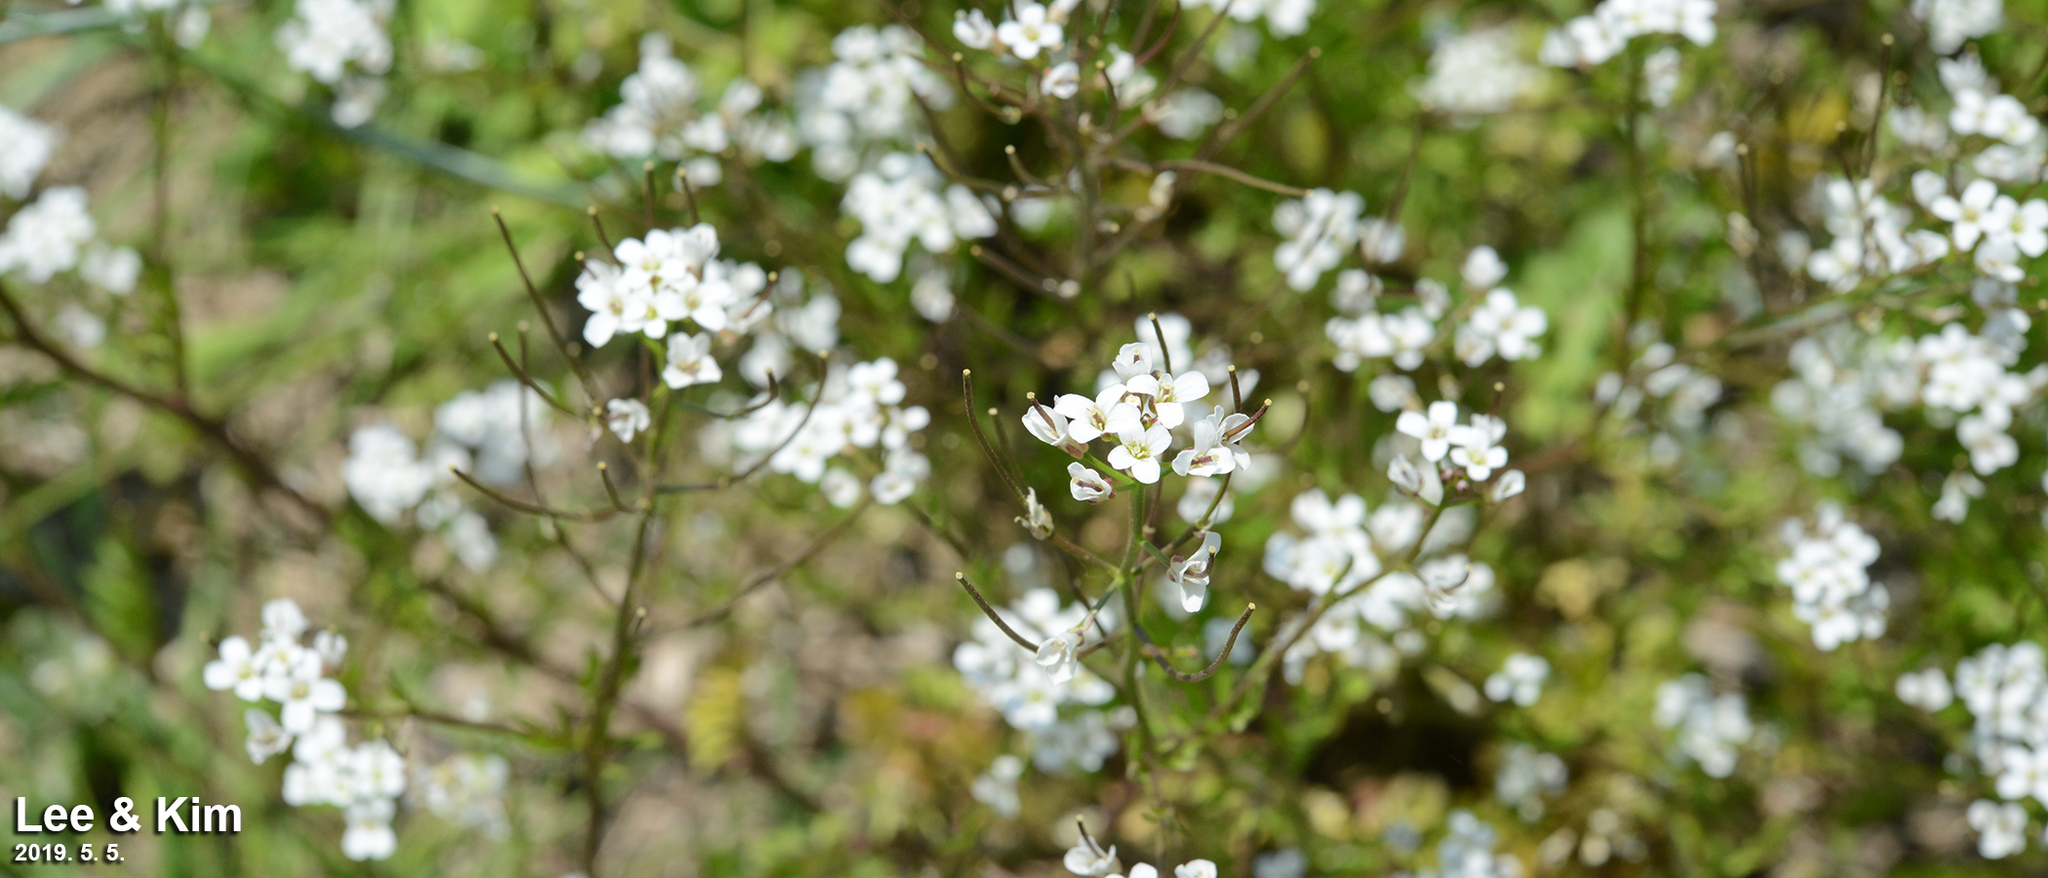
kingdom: Plantae
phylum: Tracheophyta
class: Magnoliopsida
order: Brassicales
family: Brassicaceae
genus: Cardamine
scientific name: Cardamine occulta
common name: Asian wavy bittercress
